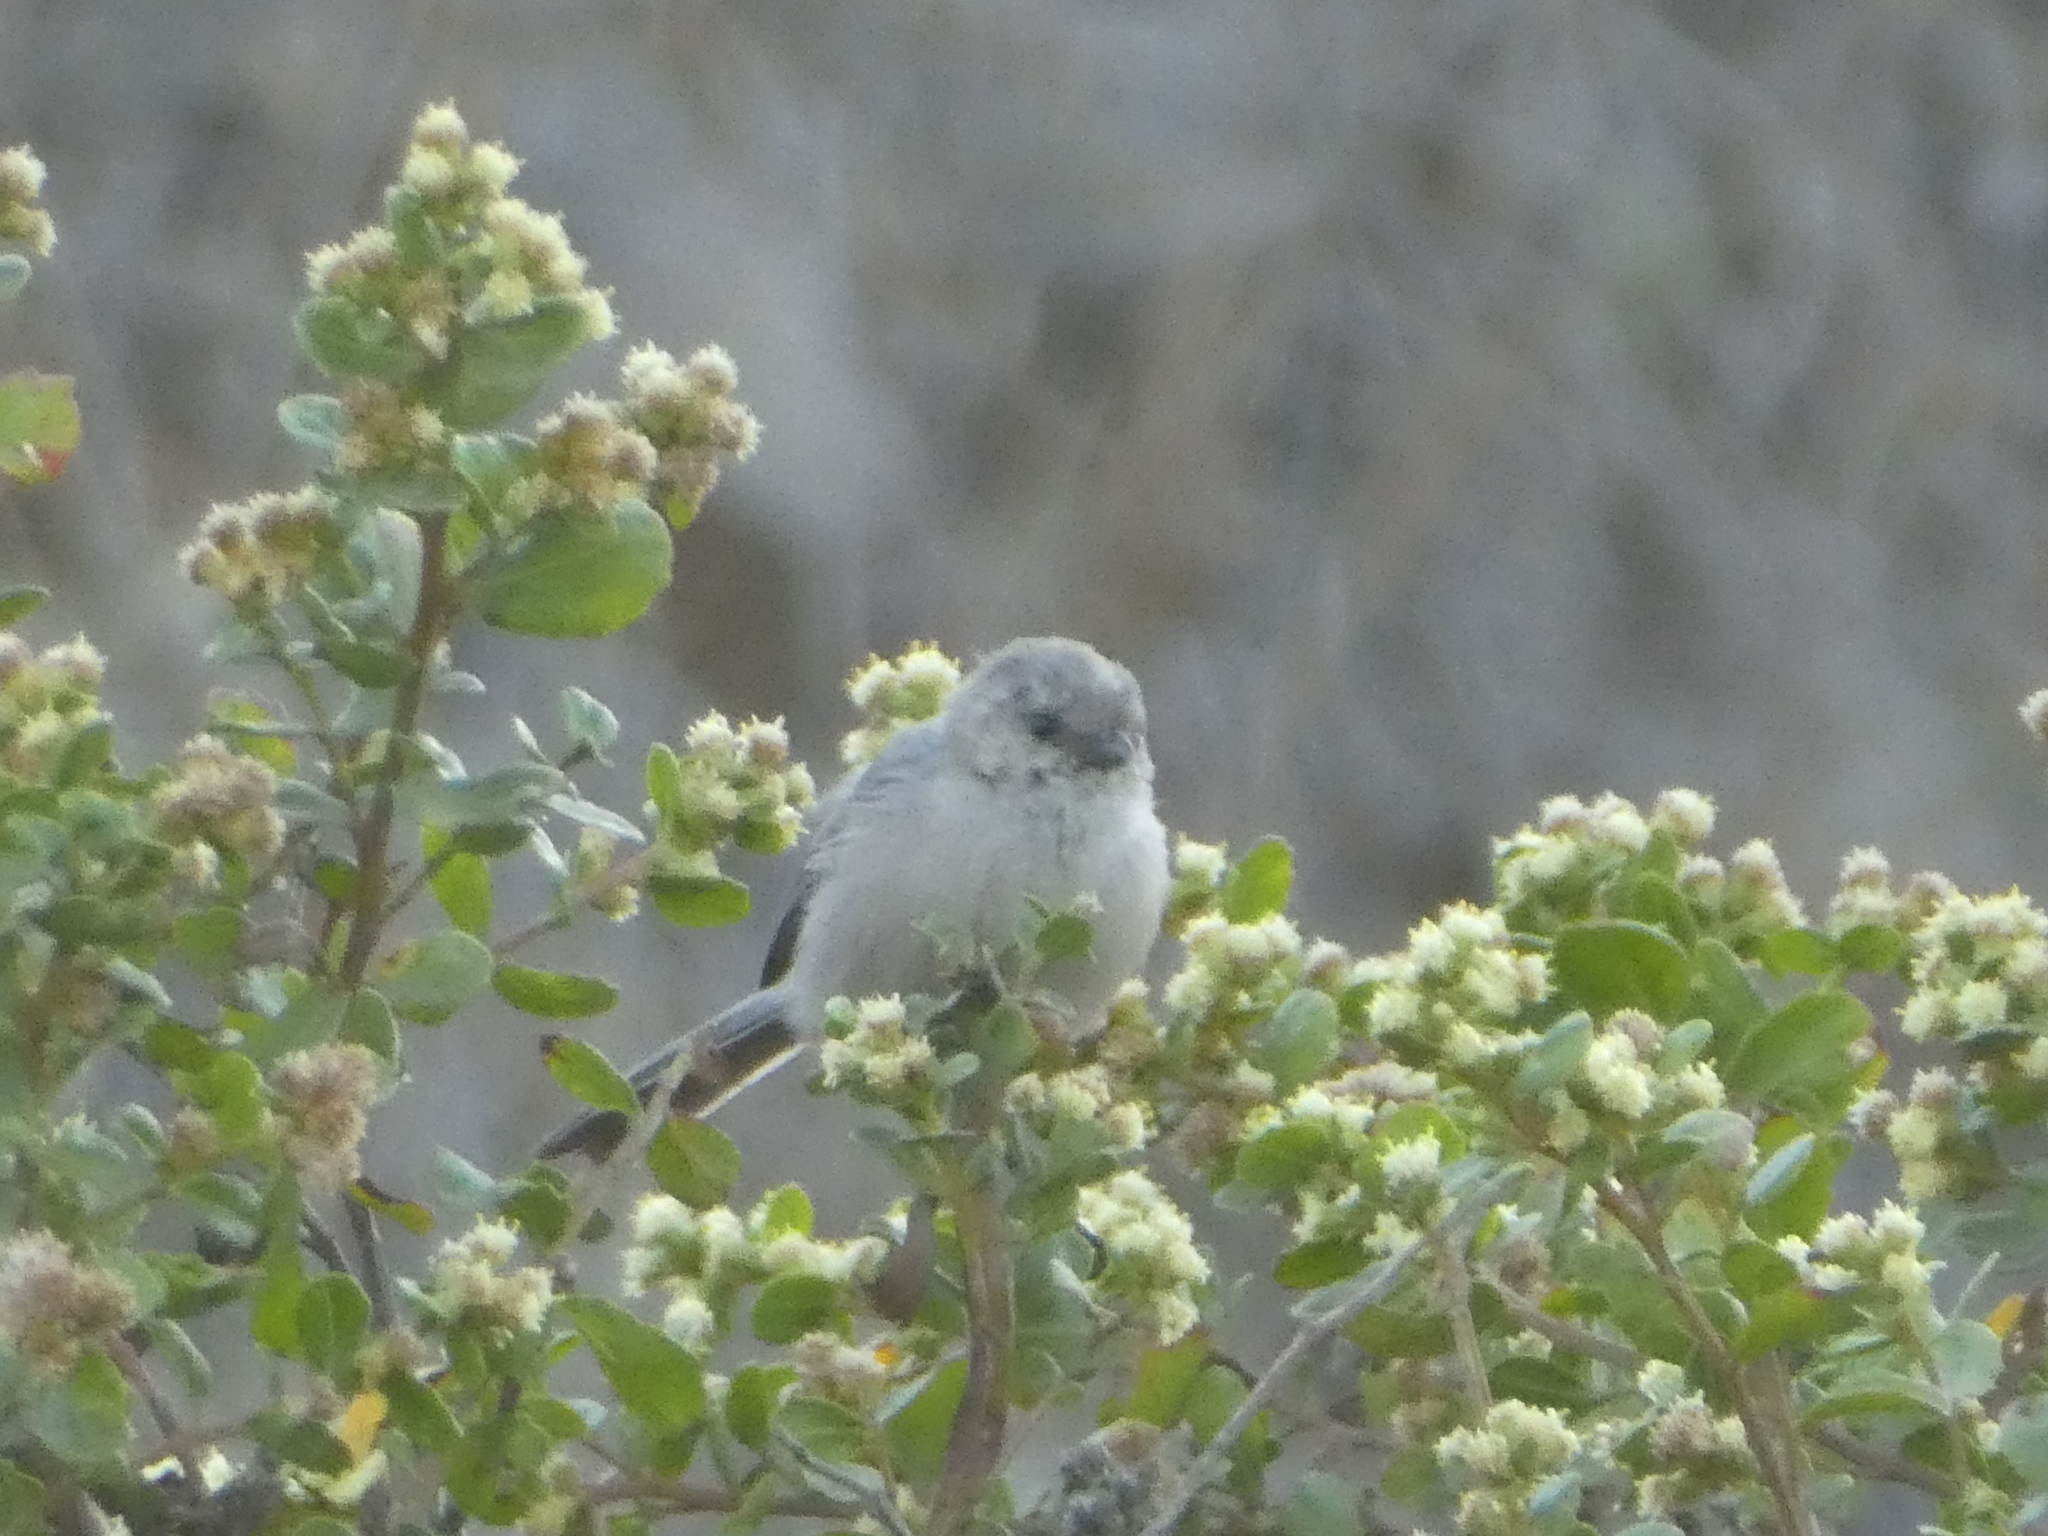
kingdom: Animalia
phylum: Chordata
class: Aves
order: Passeriformes
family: Aegithalidae
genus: Psaltriparus
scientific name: Psaltriparus minimus
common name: American bushtit
